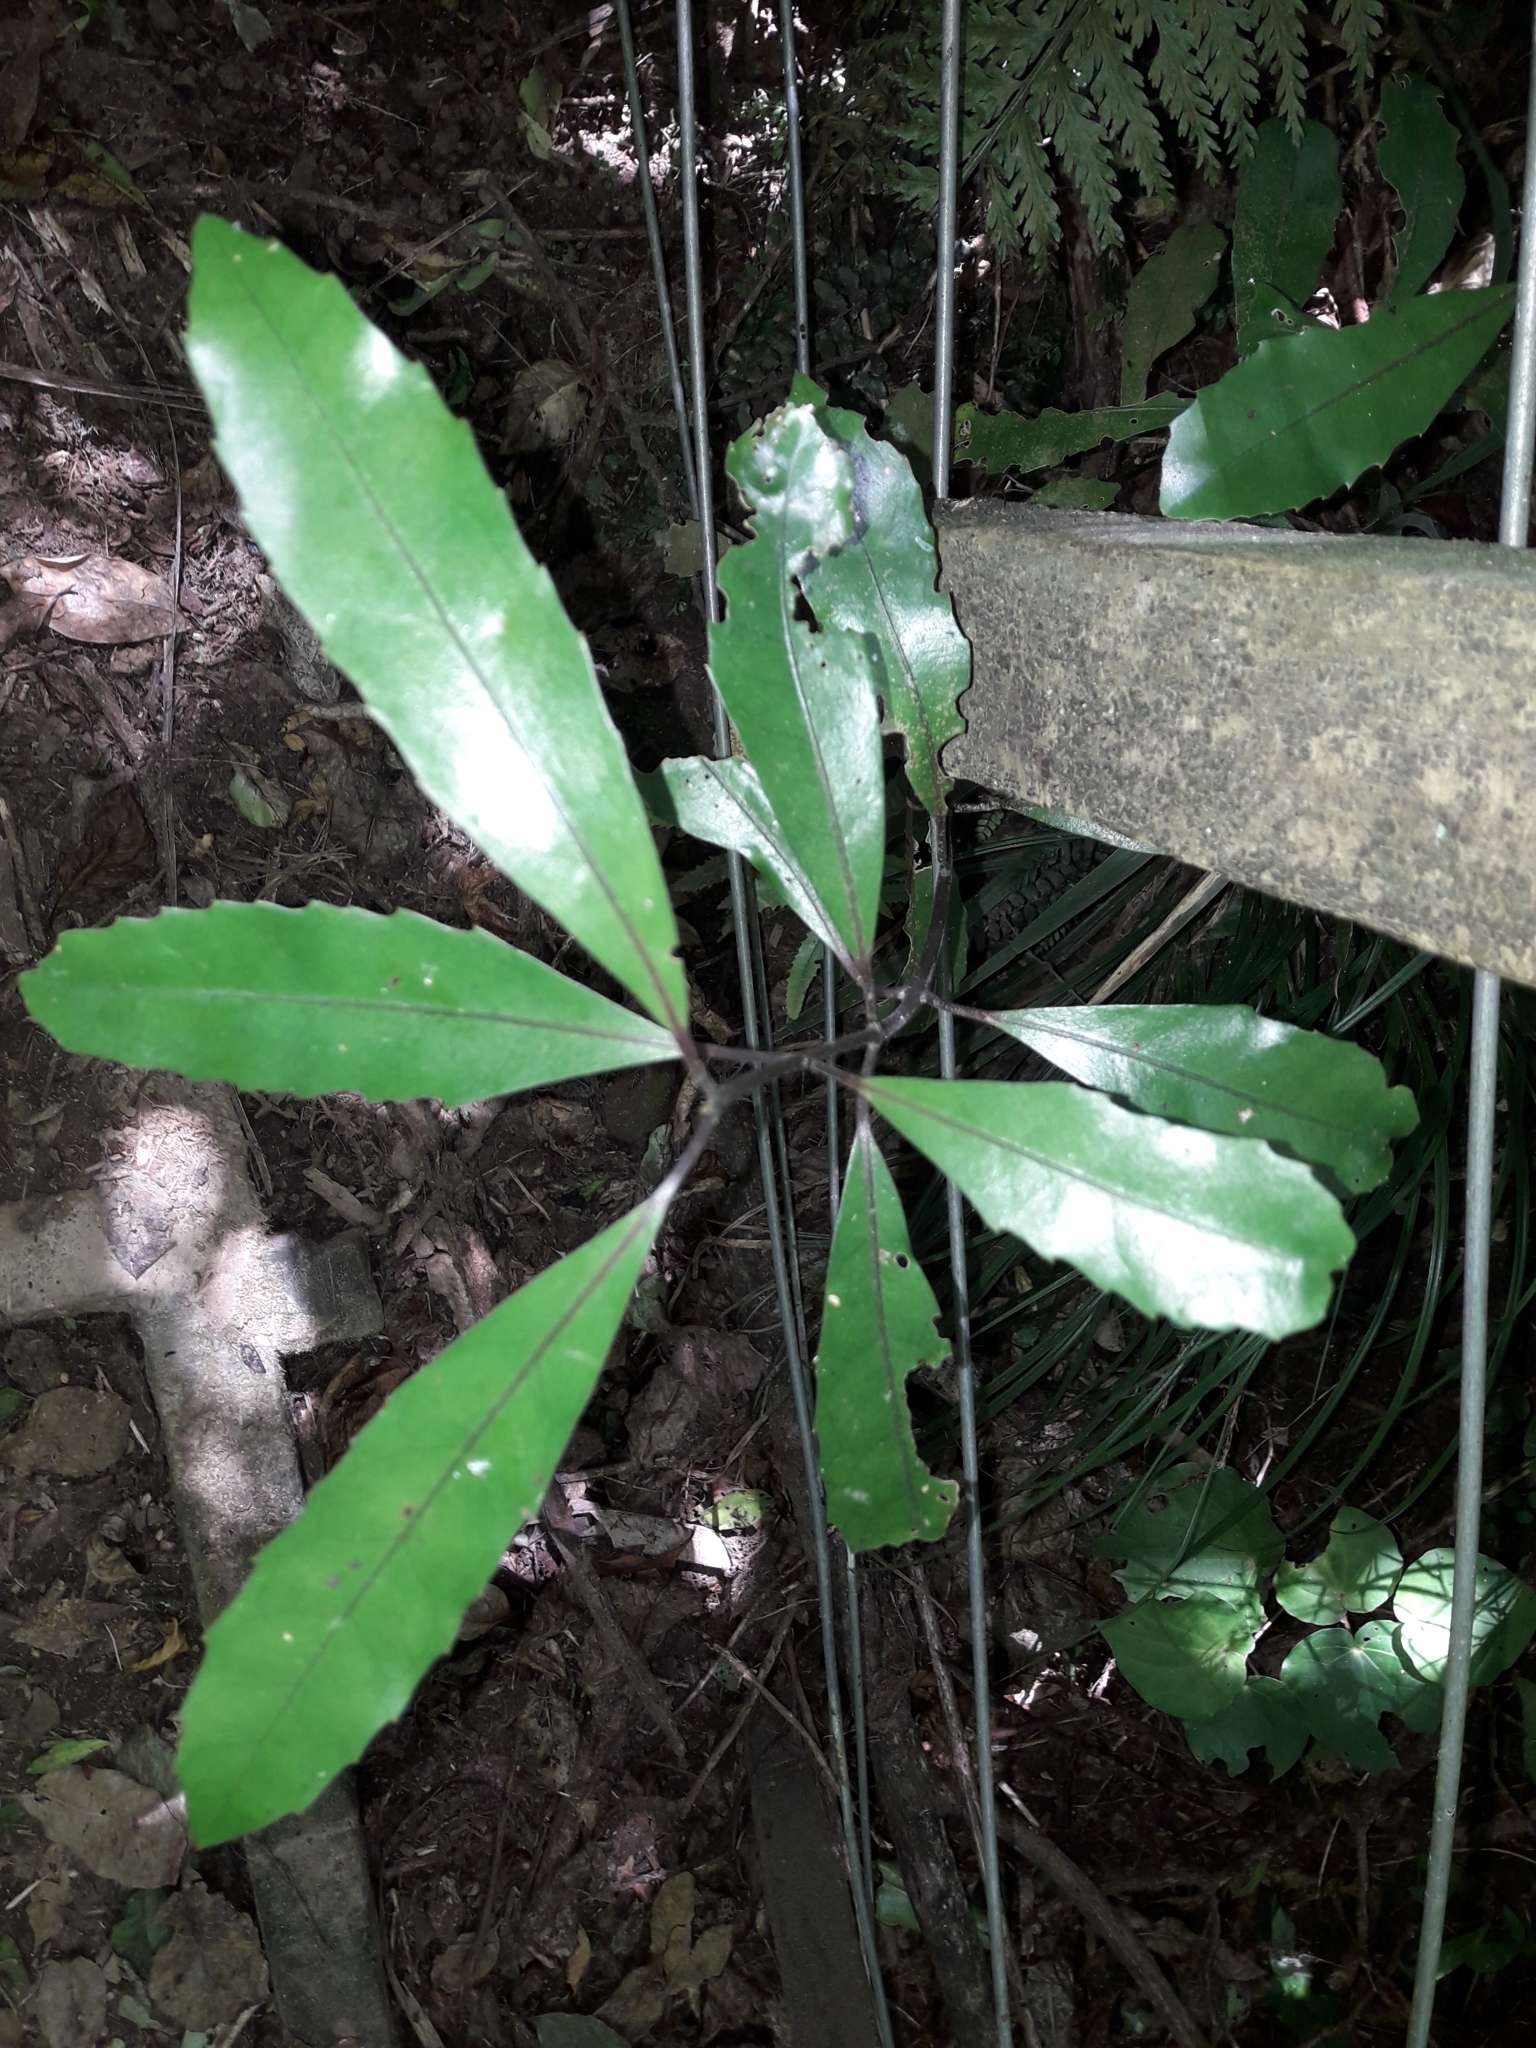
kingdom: Plantae
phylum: Tracheophyta
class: Magnoliopsida
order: Laurales
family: Monimiaceae
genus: Hedycarya
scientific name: Hedycarya arborea
